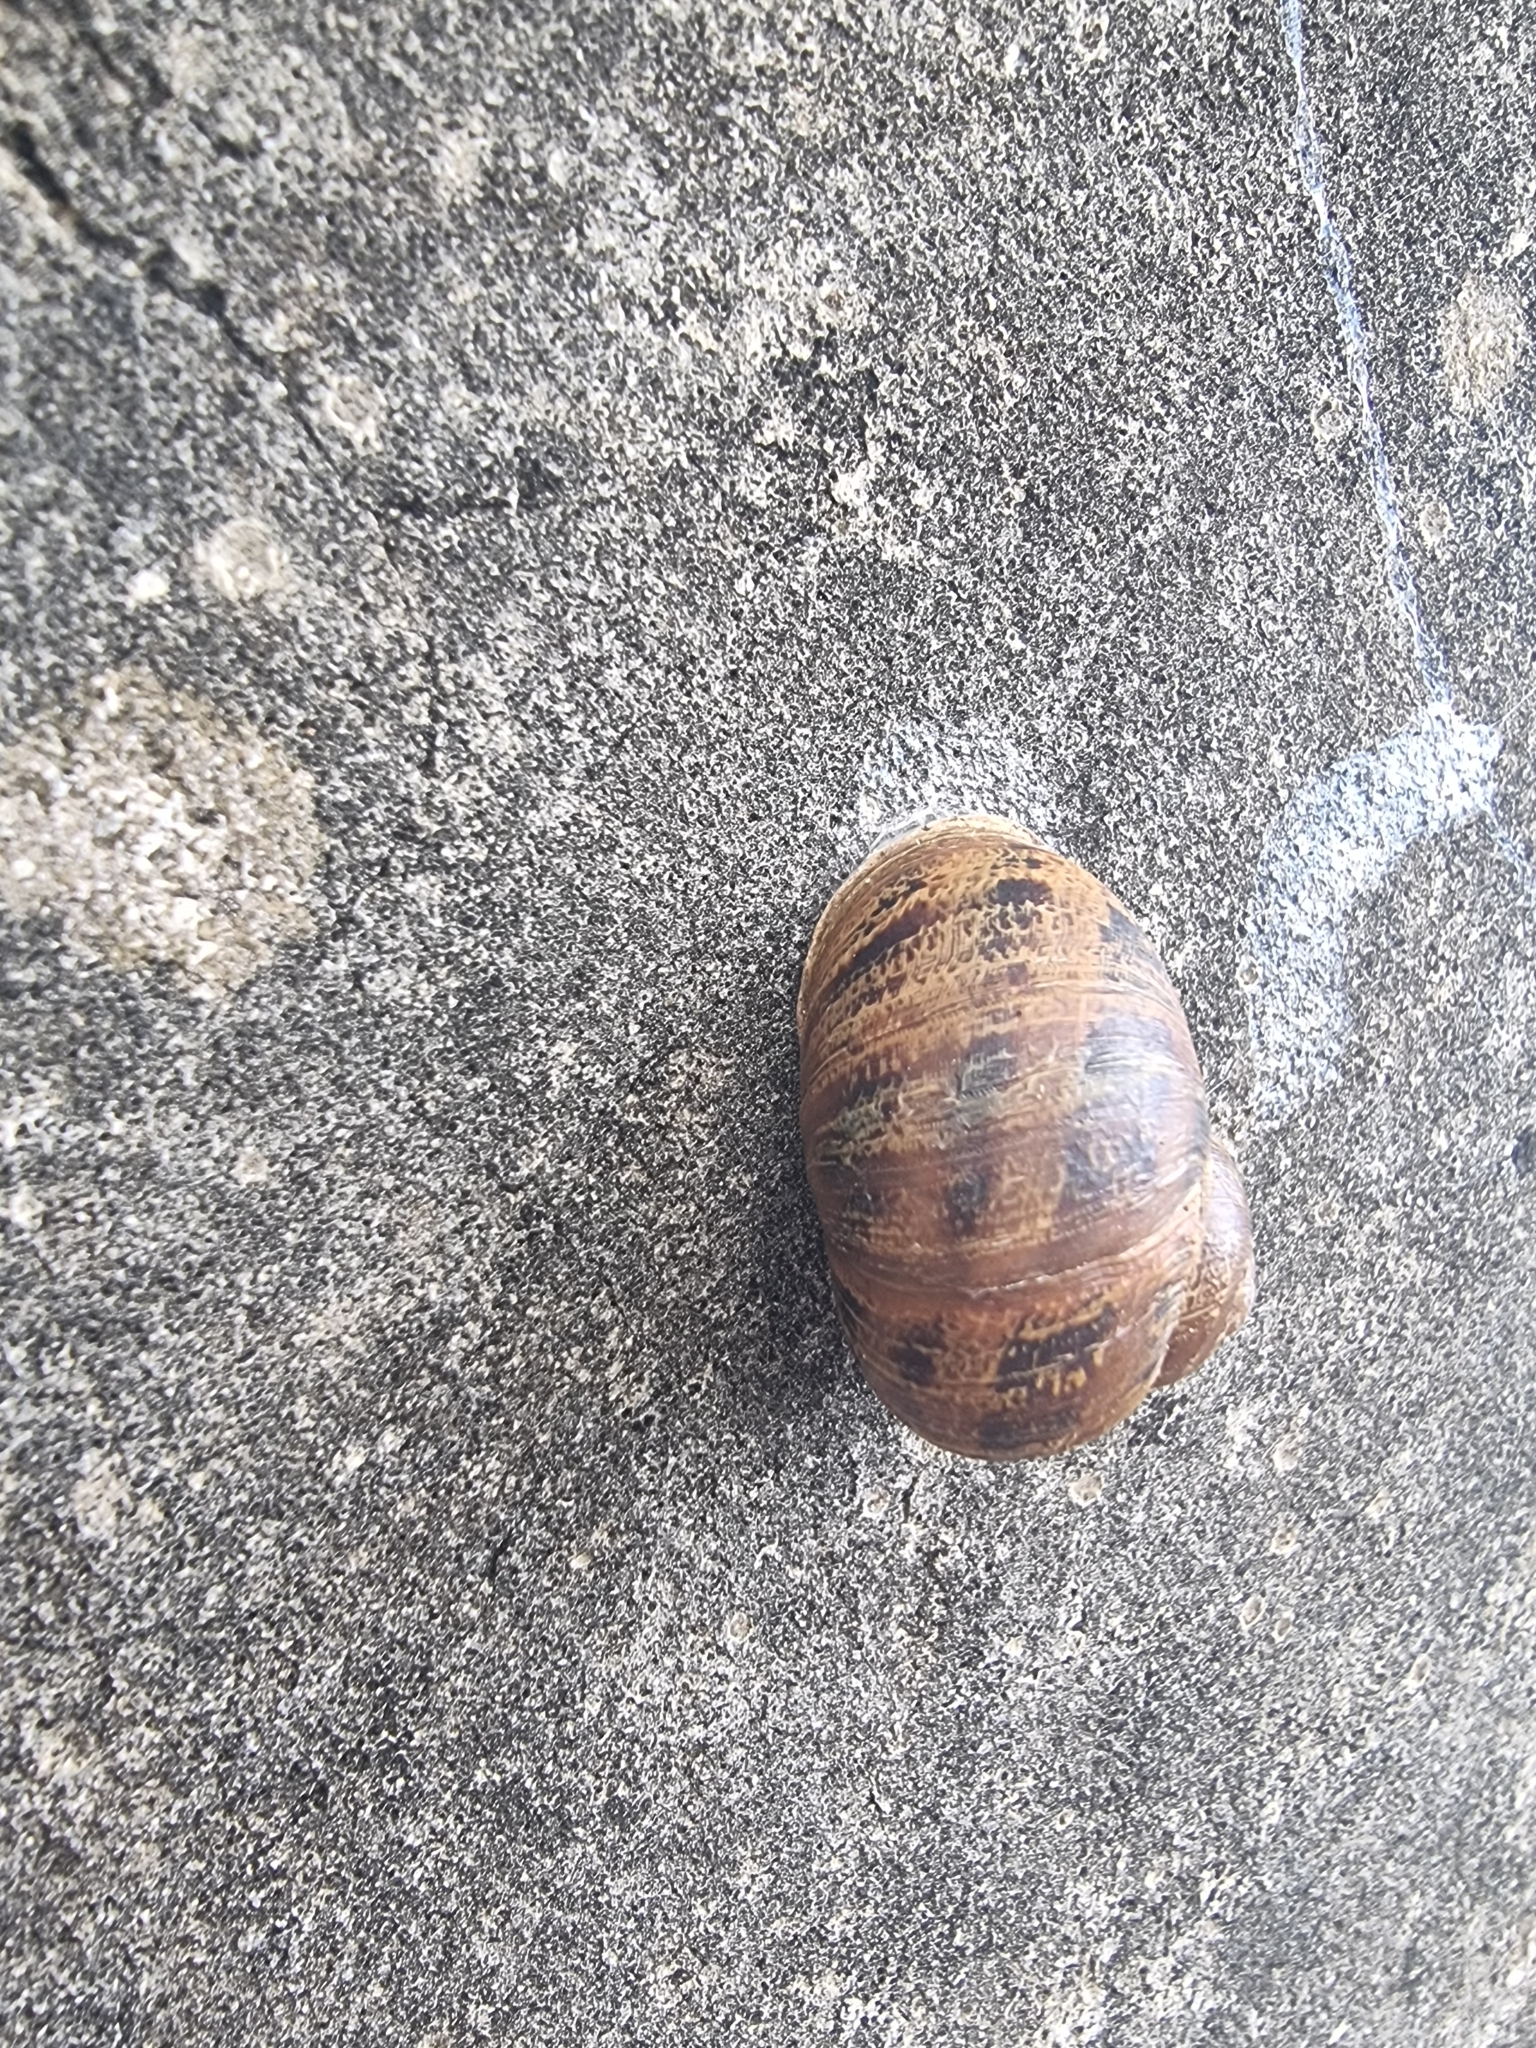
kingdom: Animalia
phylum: Mollusca
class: Gastropoda
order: Stylommatophora
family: Helicidae
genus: Cornu
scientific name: Cornu aspersum
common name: Brown garden snail
